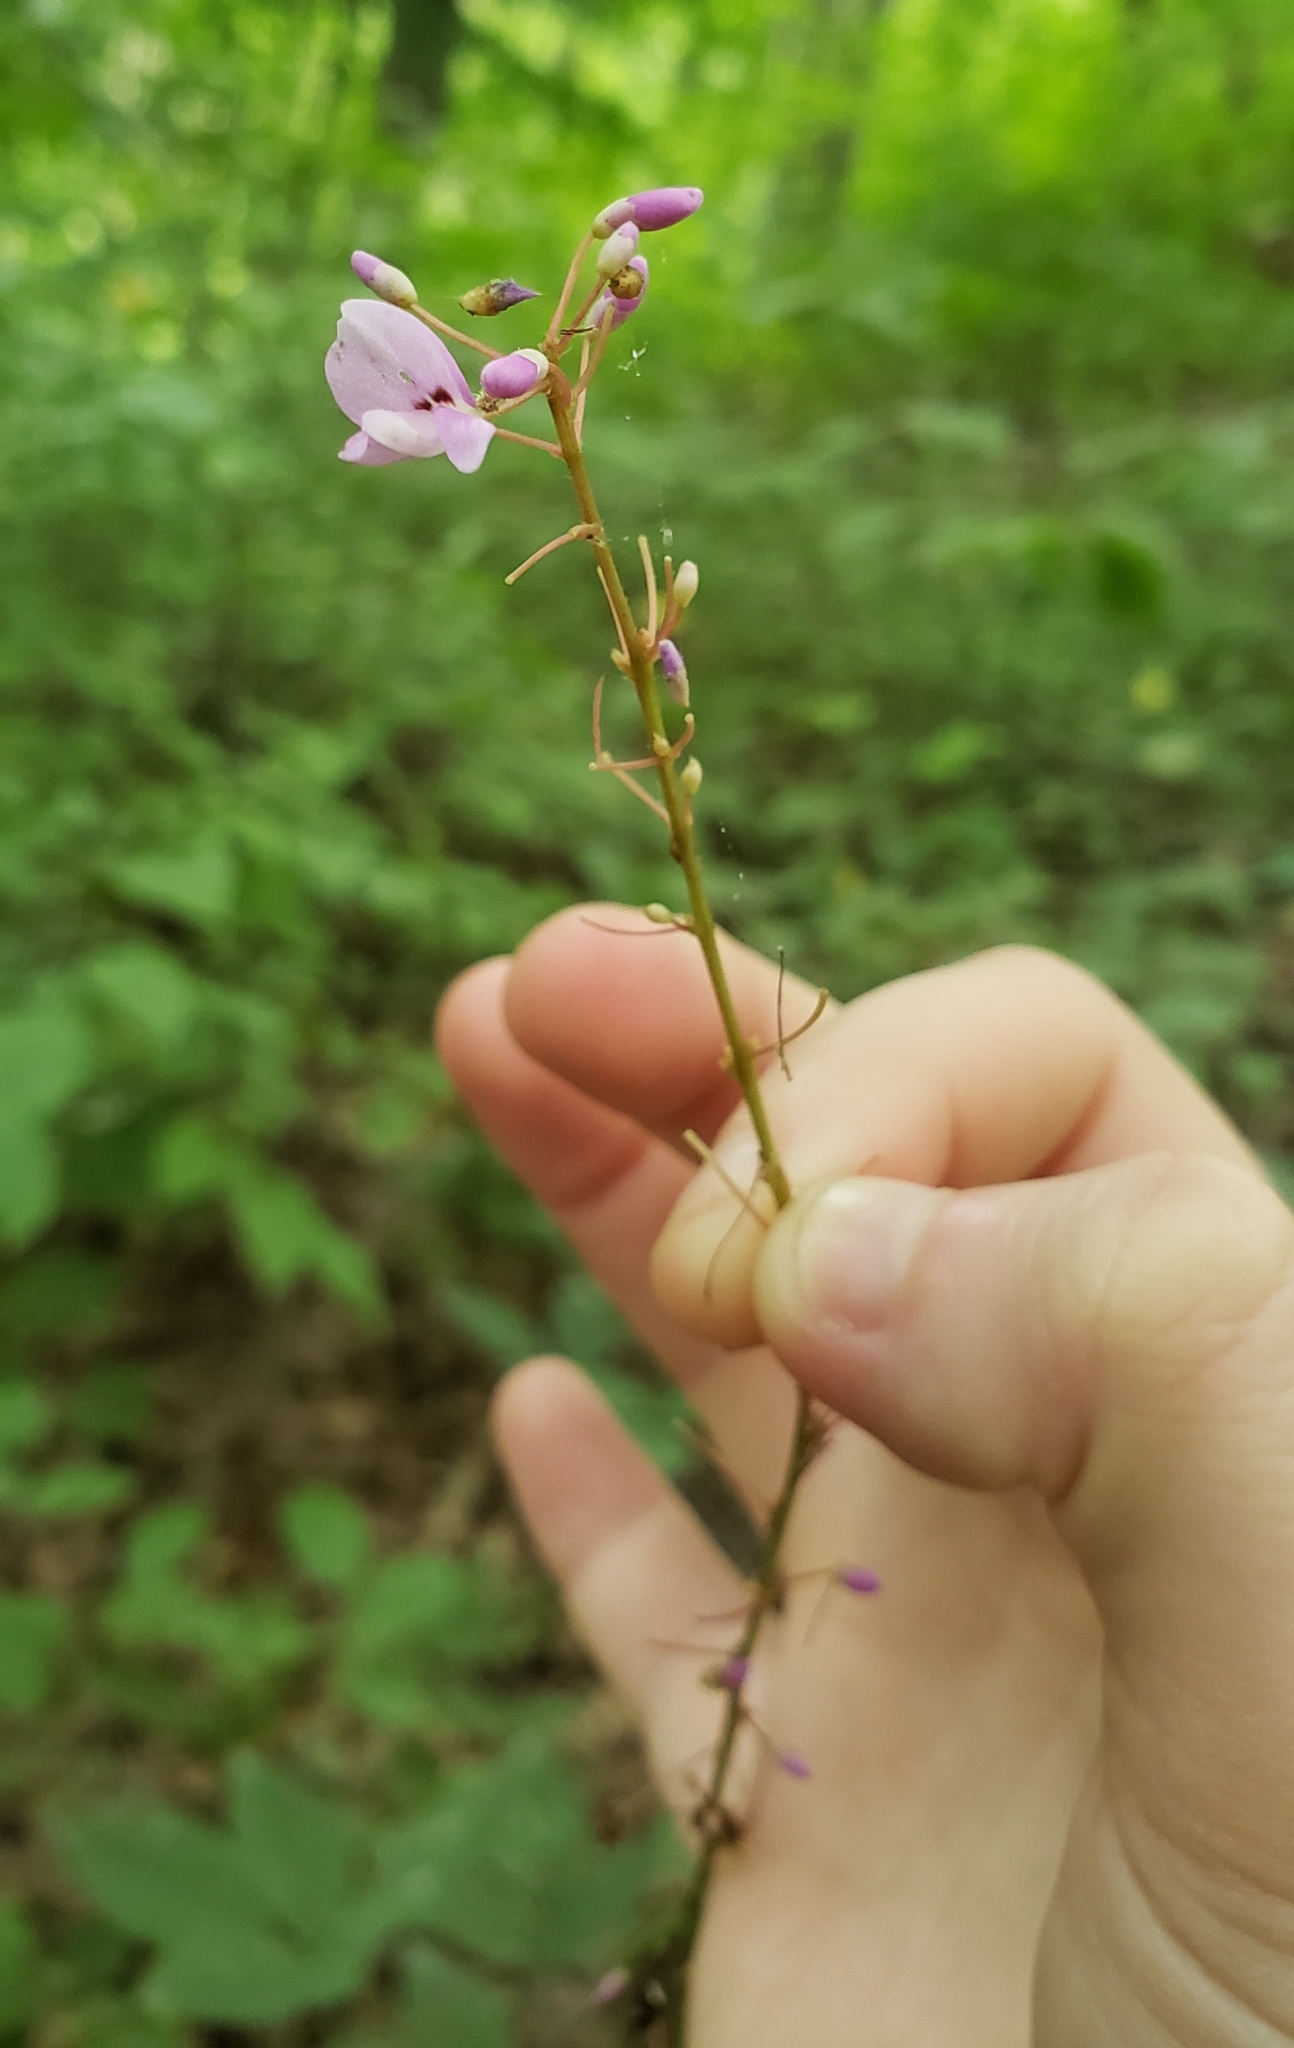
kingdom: Plantae
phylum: Tracheophyta
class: Magnoliopsida
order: Fabales
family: Fabaceae
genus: Hylodesmum
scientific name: Hylodesmum nudiflorum
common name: Bare-stemmed tick-trefoil
